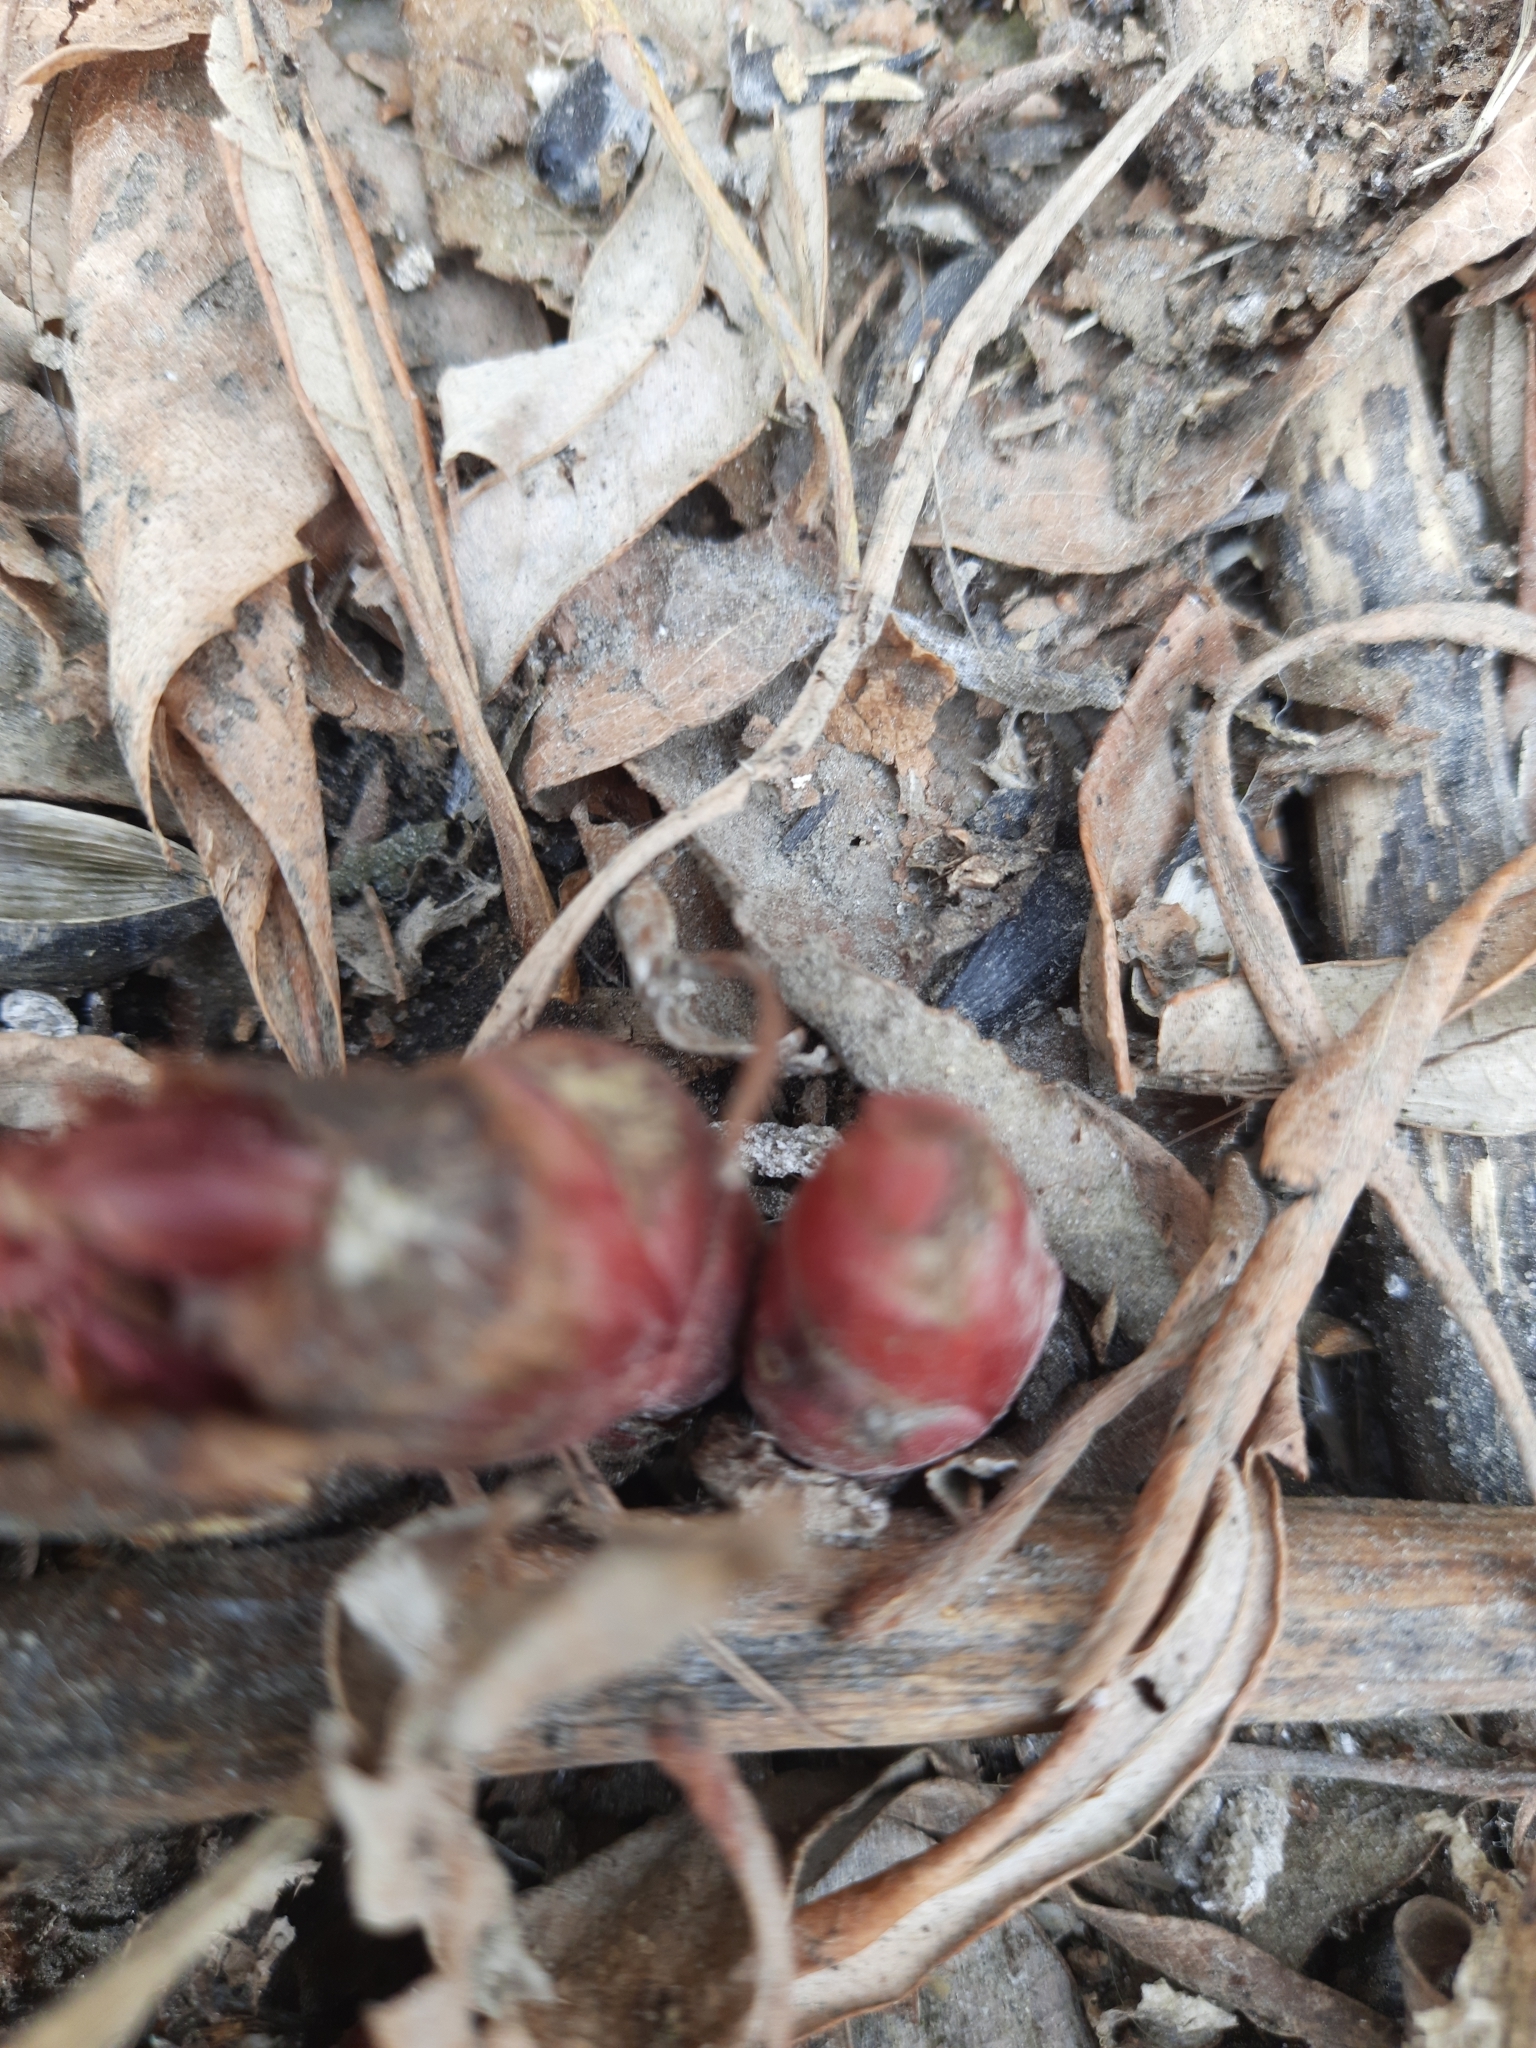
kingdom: Plantae
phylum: Tracheophyta
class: Magnoliopsida
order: Saxifragales
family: Paeoniaceae
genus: Paeonia
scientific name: Paeonia anomala
